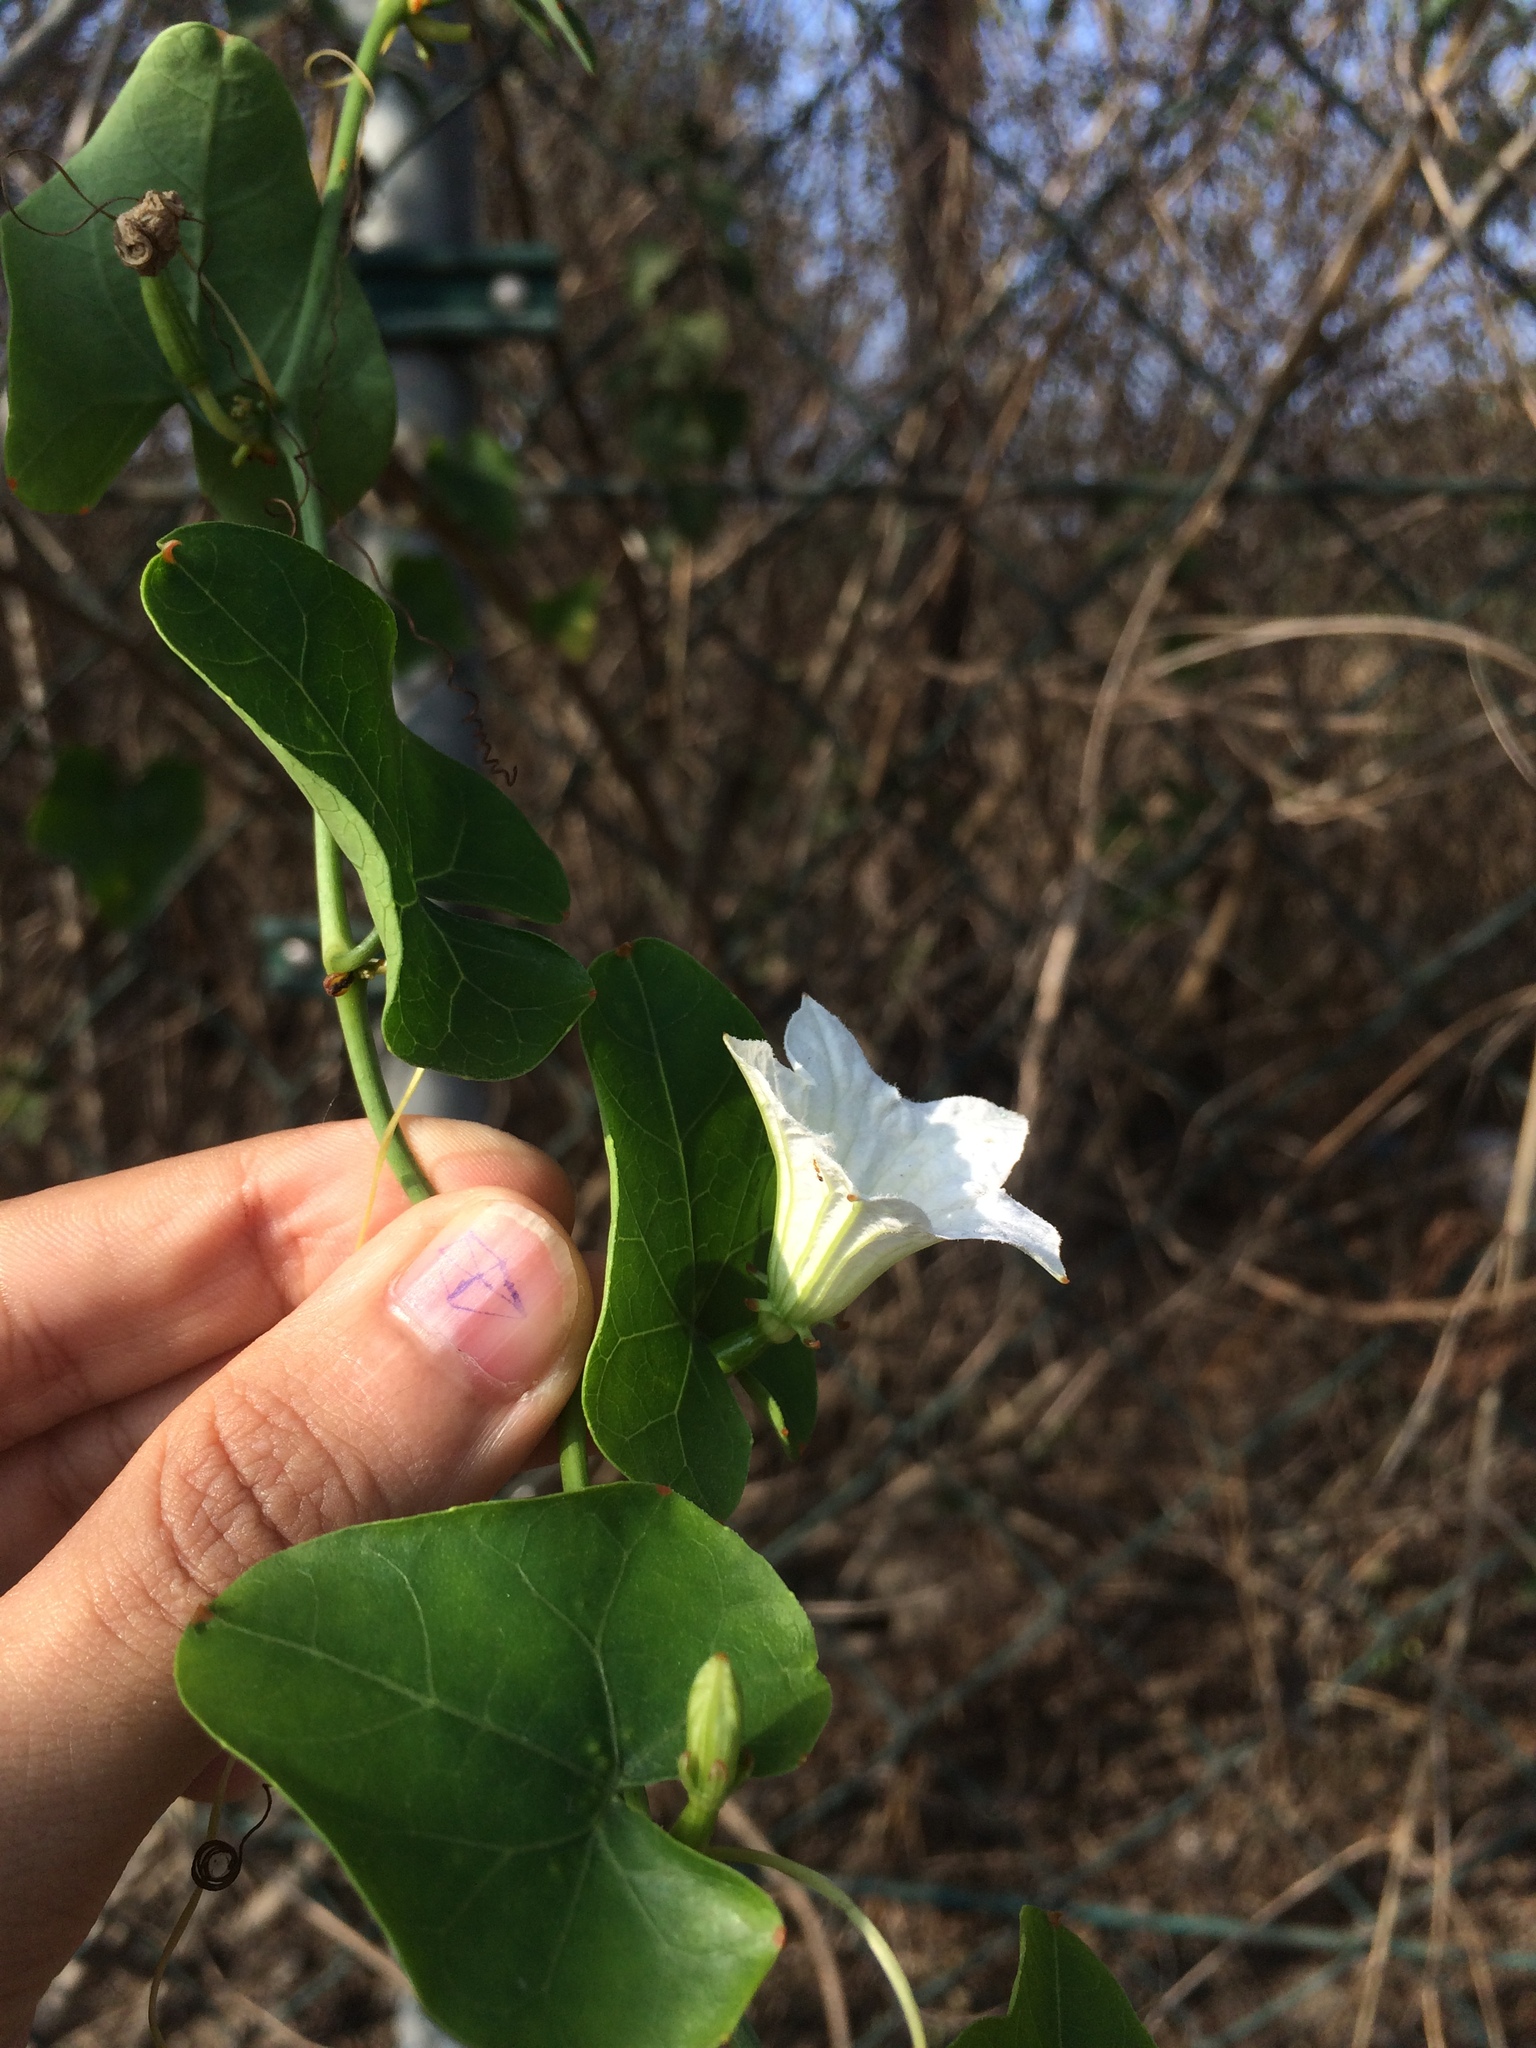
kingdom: Plantae
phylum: Tracheophyta
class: Magnoliopsida
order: Cucurbitales
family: Cucurbitaceae
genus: Coccinia
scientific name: Coccinia grandis
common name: Ivy gourd
